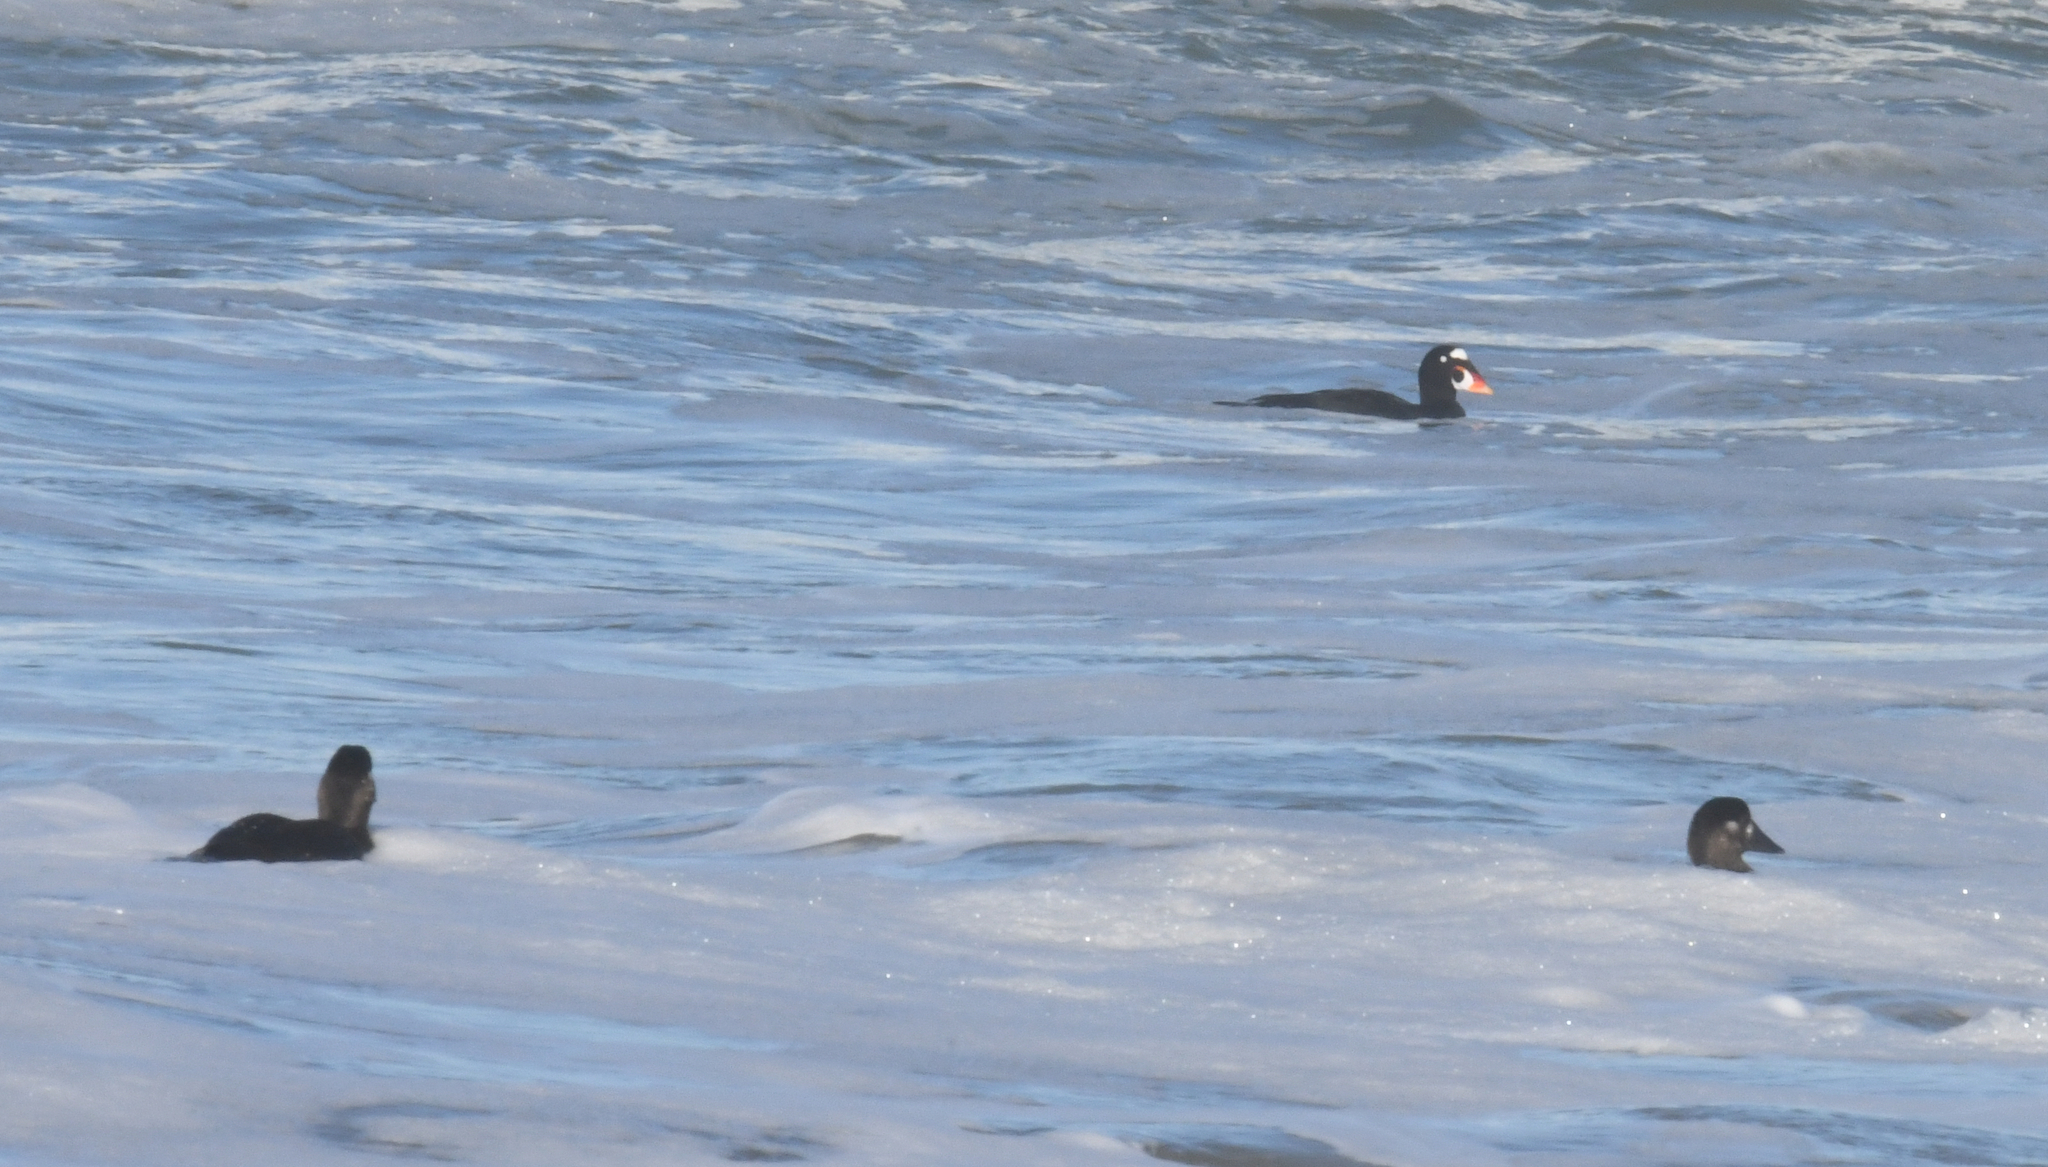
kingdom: Animalia
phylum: Chordata
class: Aves
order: Anseriformes
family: Anatidae
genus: Melanitta
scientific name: Melanitta perspicillata
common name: Surf scoter
